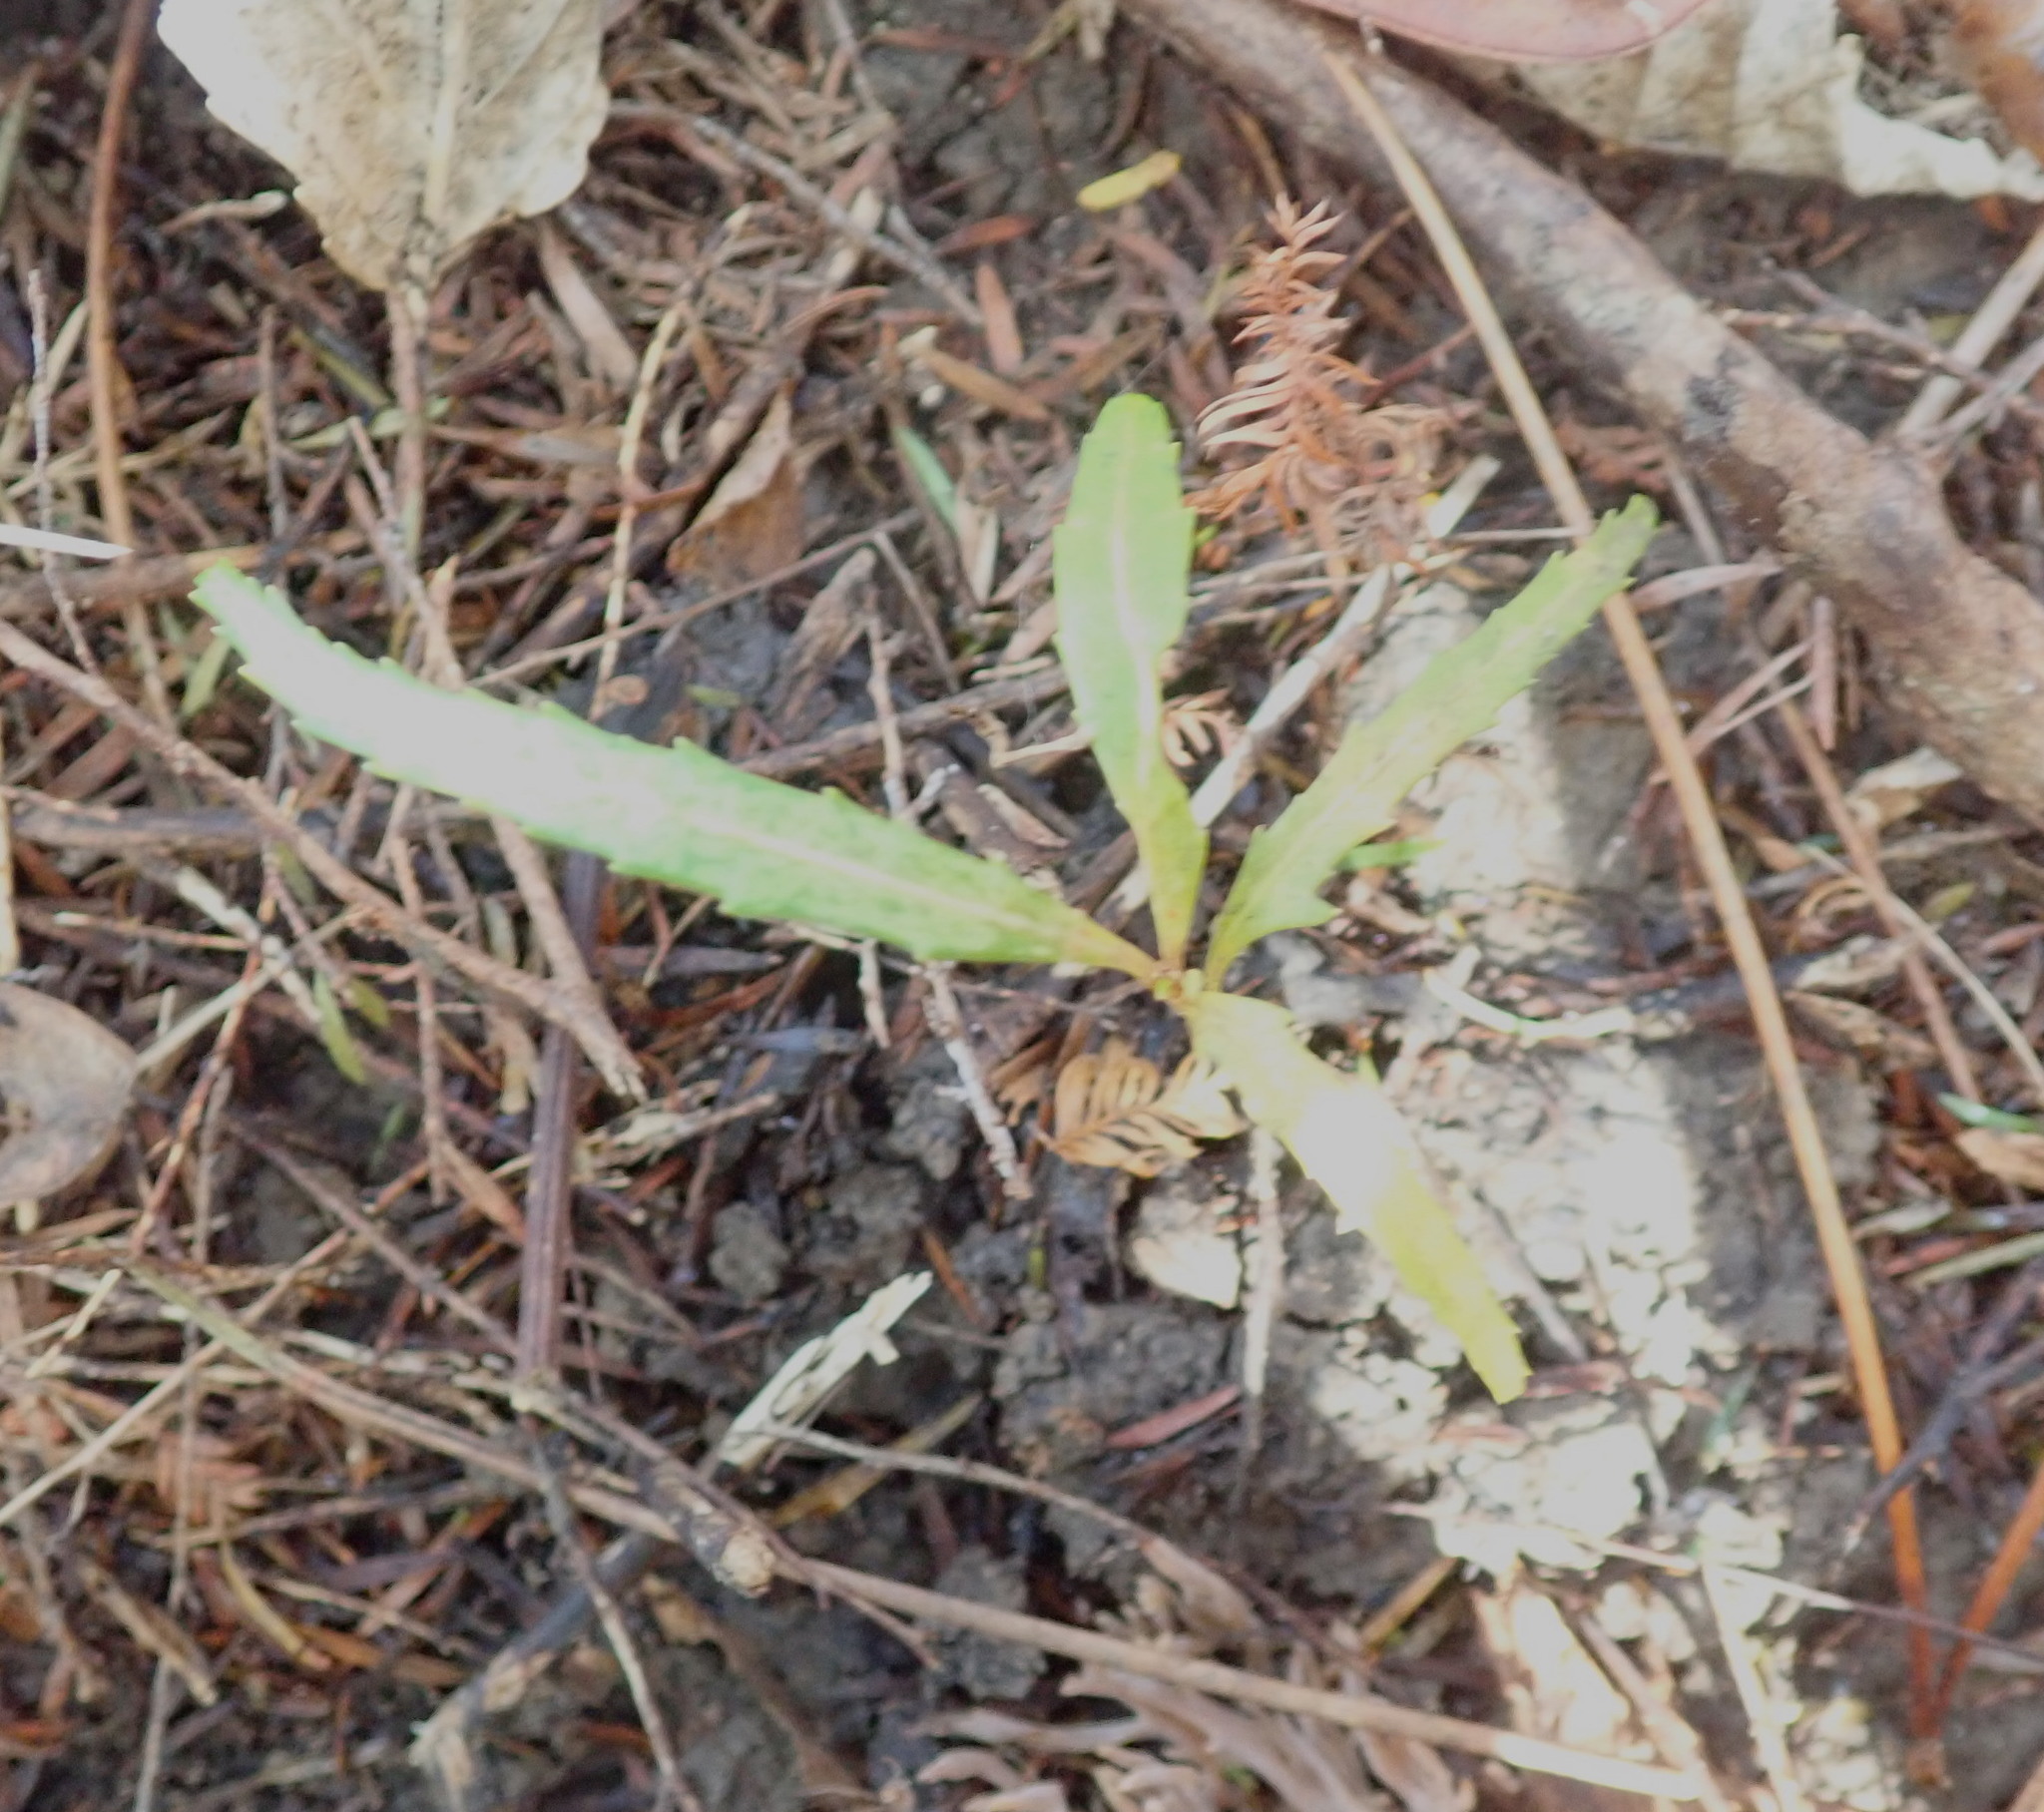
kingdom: Plantae
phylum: Tracheophyta
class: Magnoliopsida
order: Apiales
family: Araliaceae
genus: Pseudopanax
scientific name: Pseudopanax crassifolius
